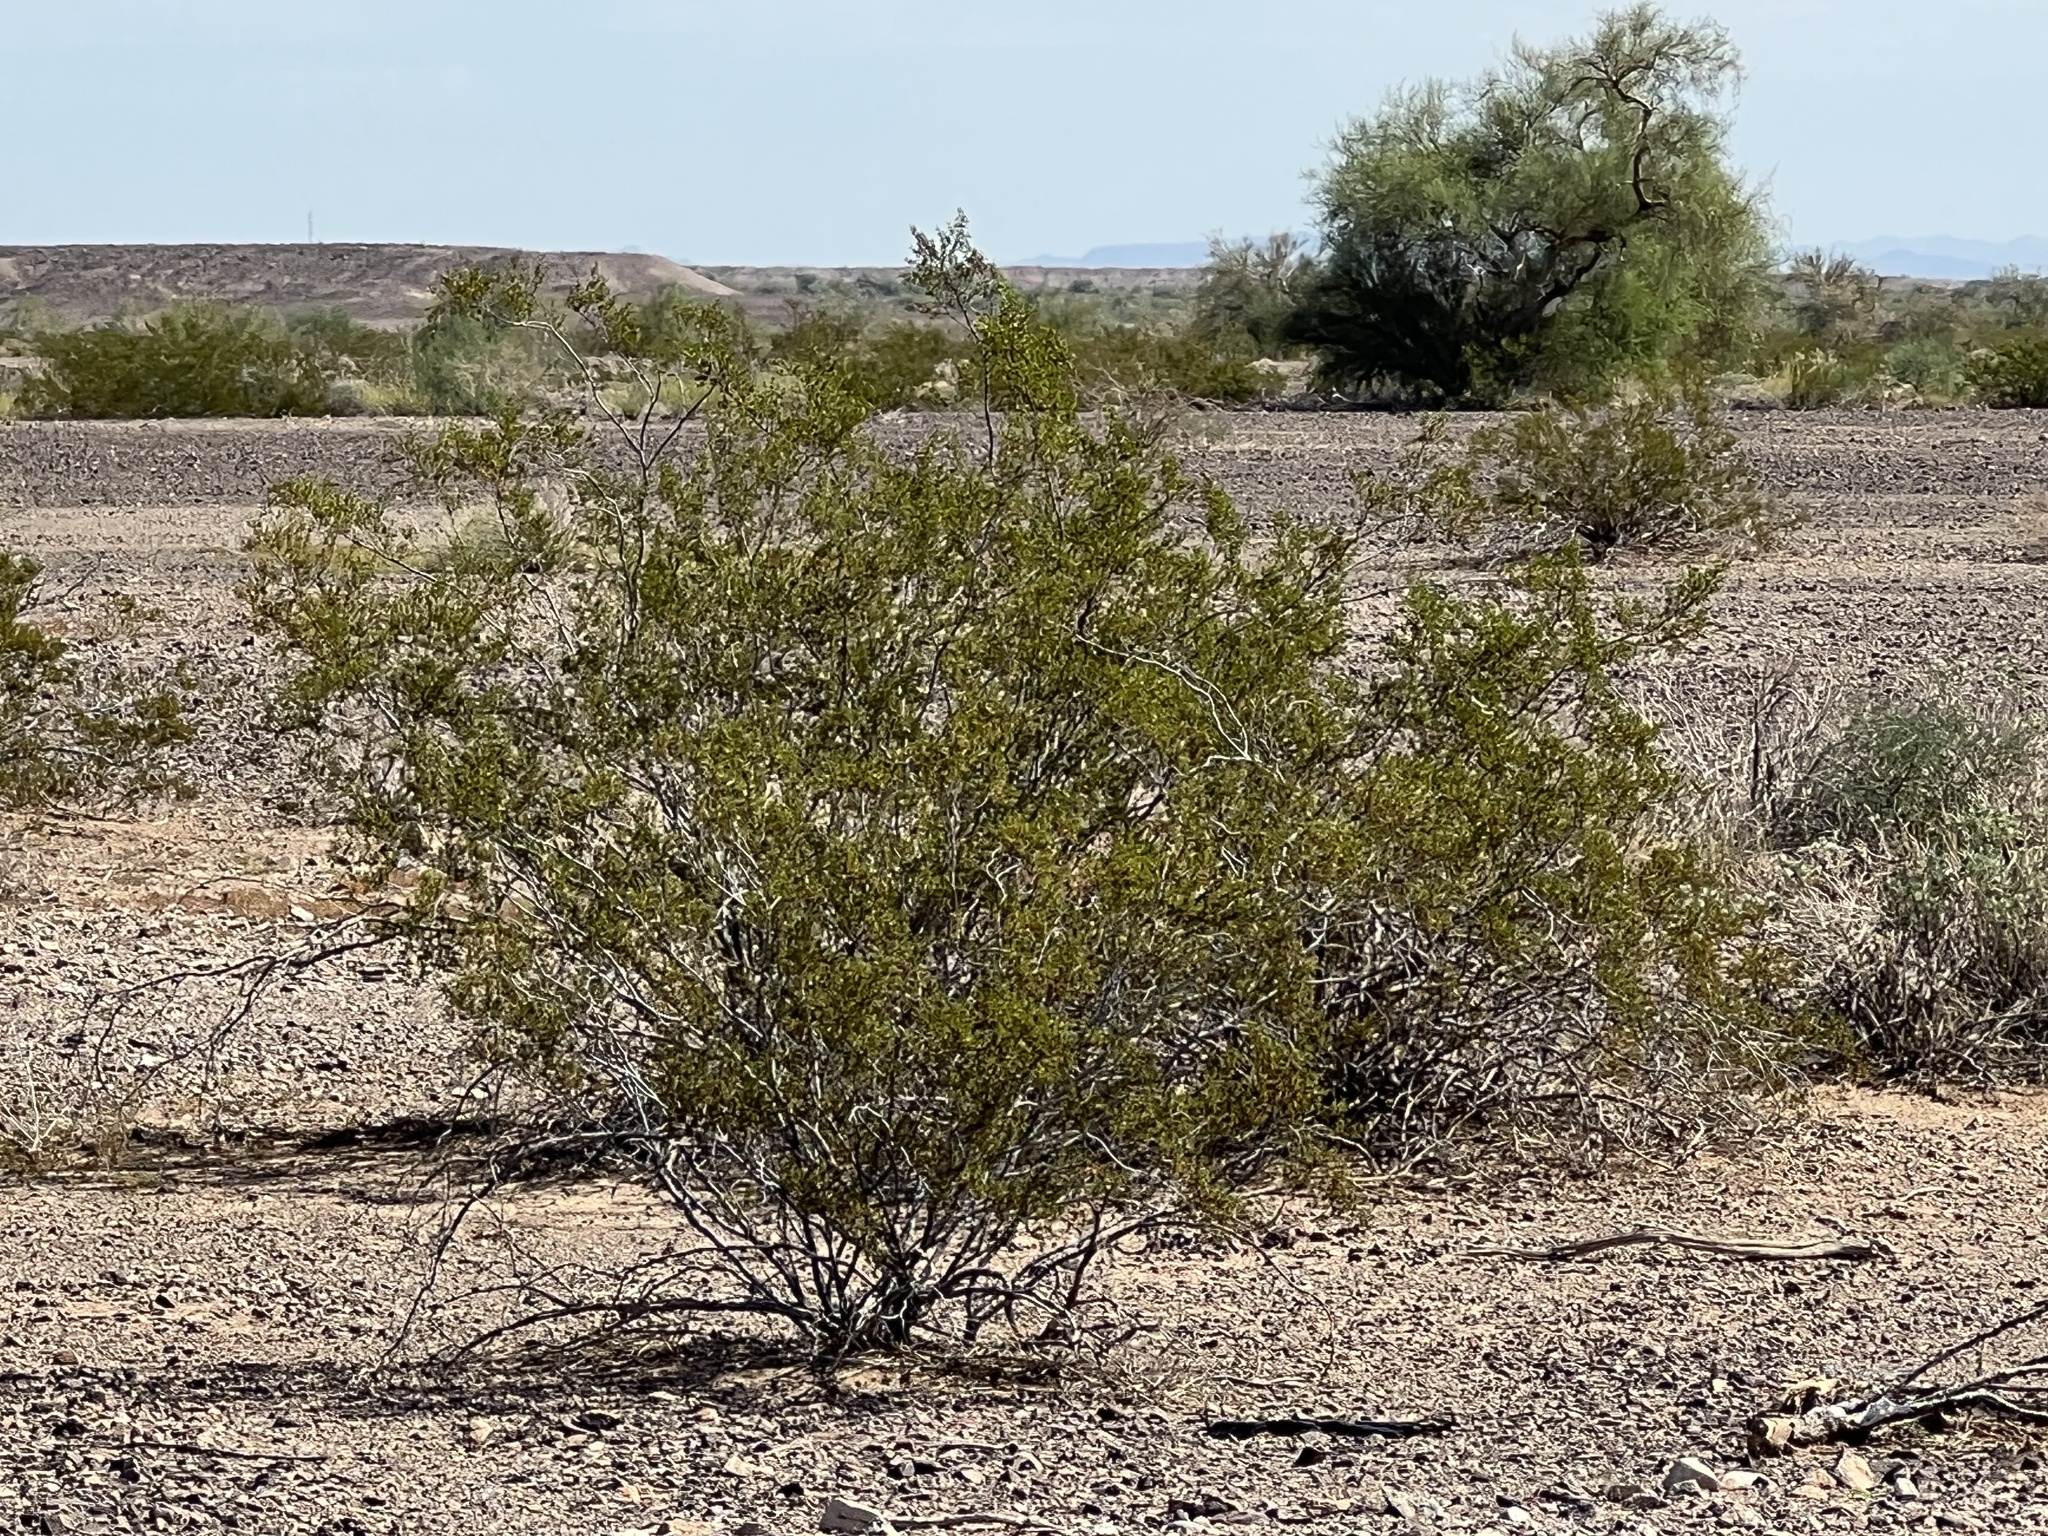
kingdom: Plantae
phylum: Tracheophyta
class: Magnoliopsida
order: Zygophyllales
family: Zygophyllaceae
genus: Larrea
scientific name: Larrea tridentata
